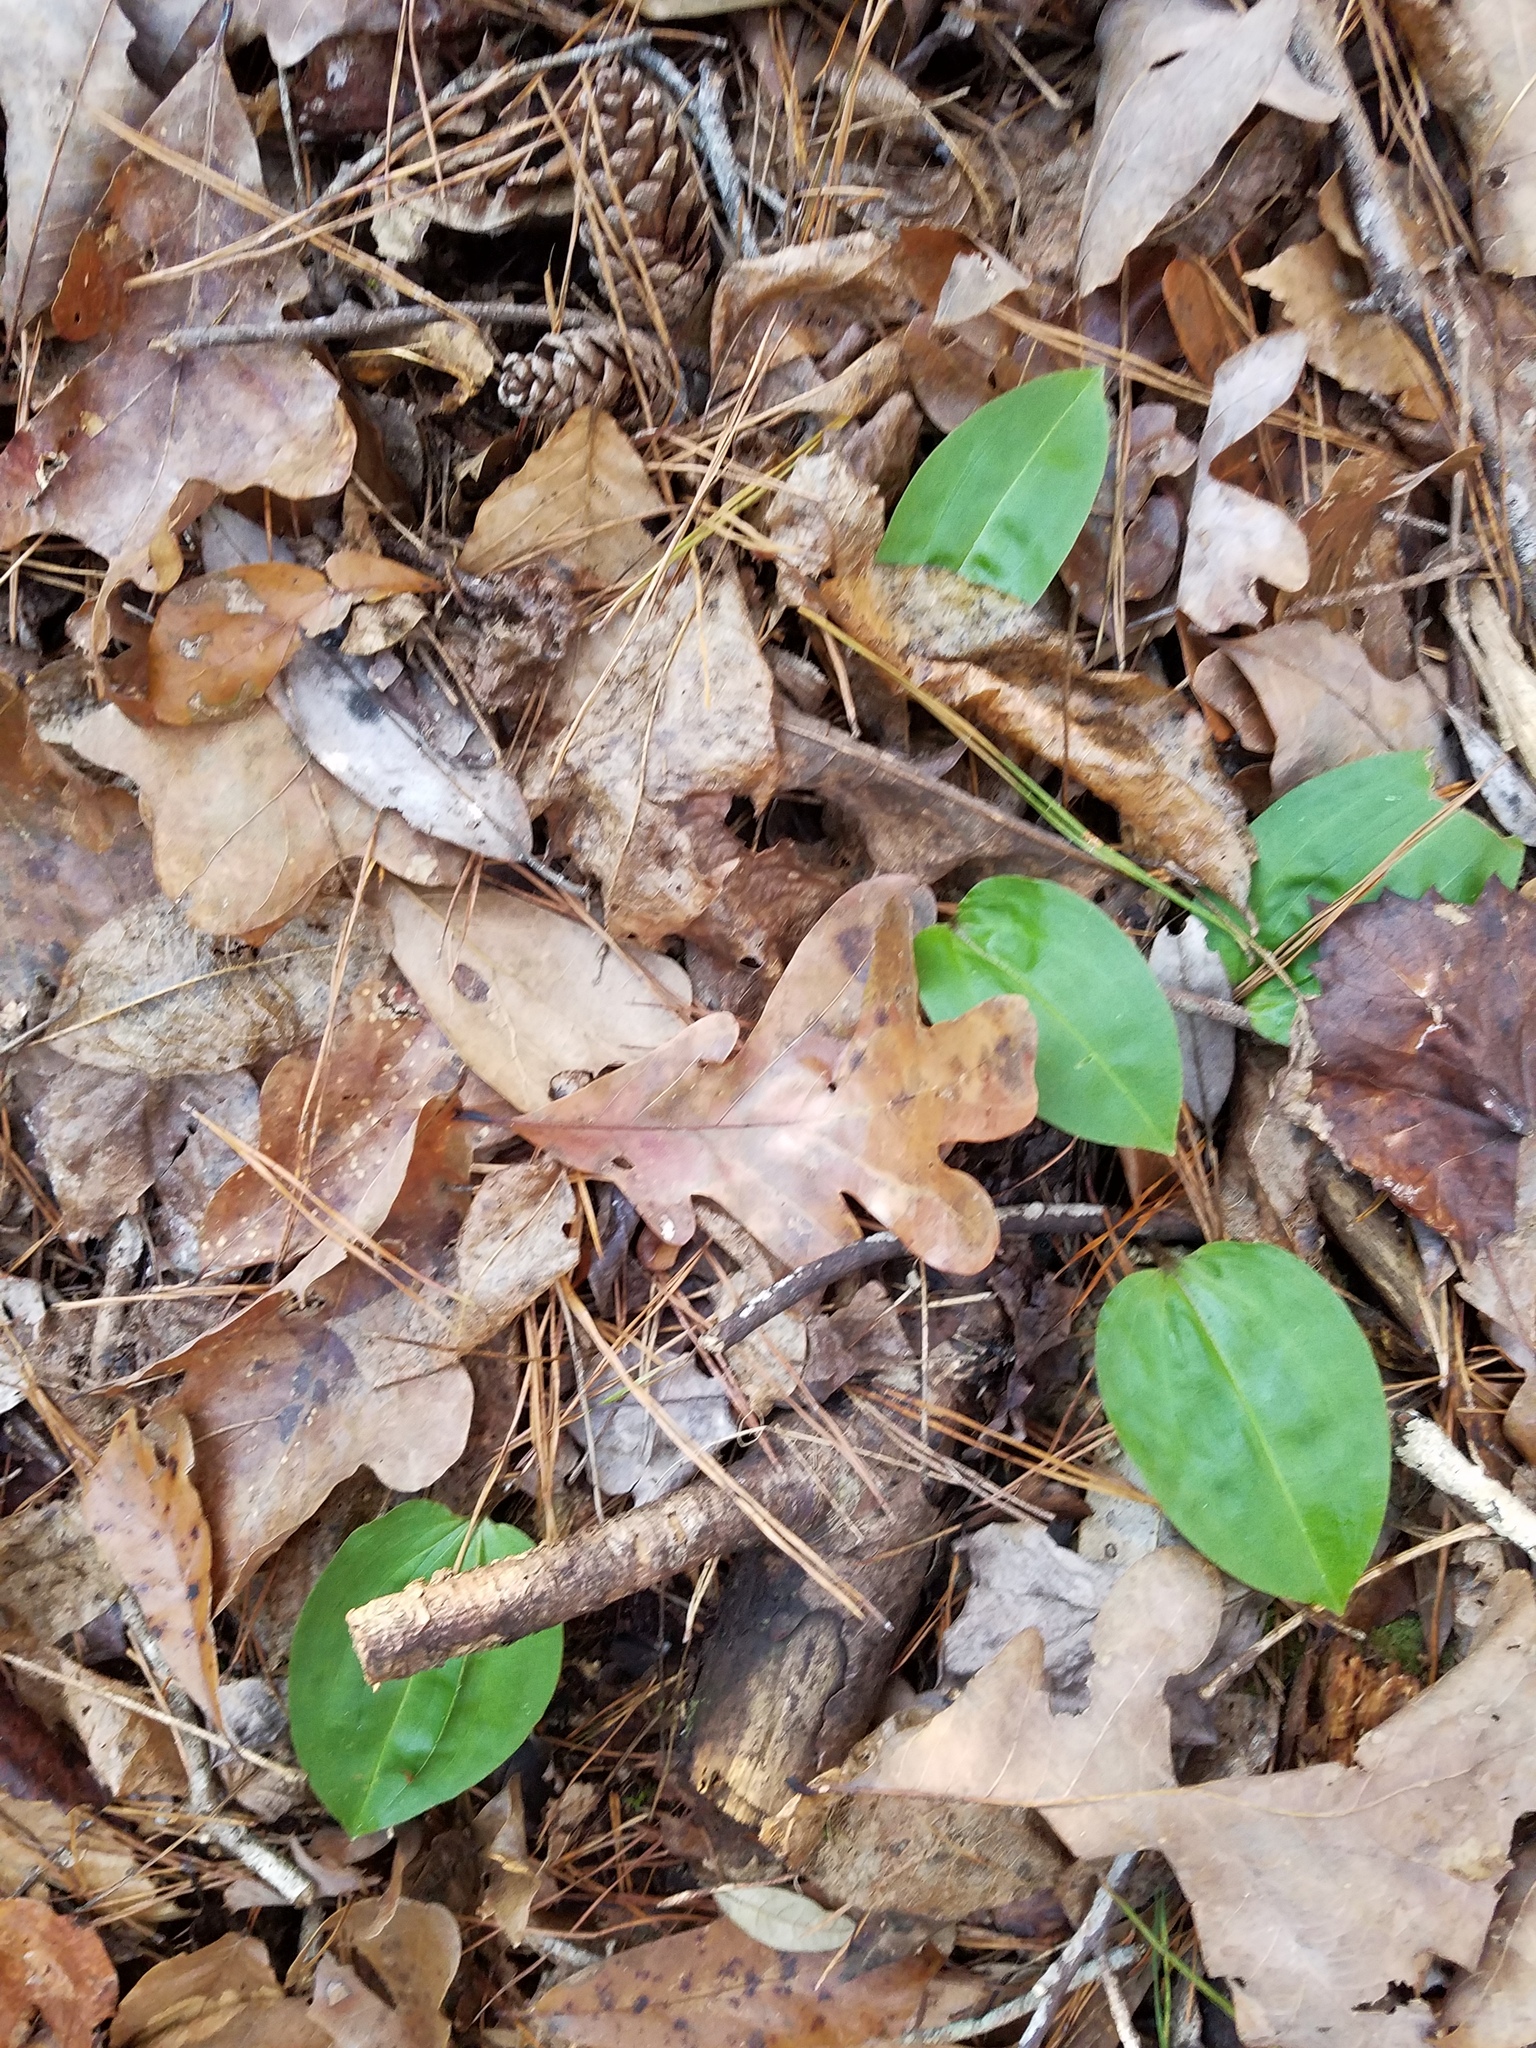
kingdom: Plantae
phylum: Tracheophyta
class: Liliopsida
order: Asparagales
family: Orchidaceae
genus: Tipularia
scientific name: Tipularia discolor
